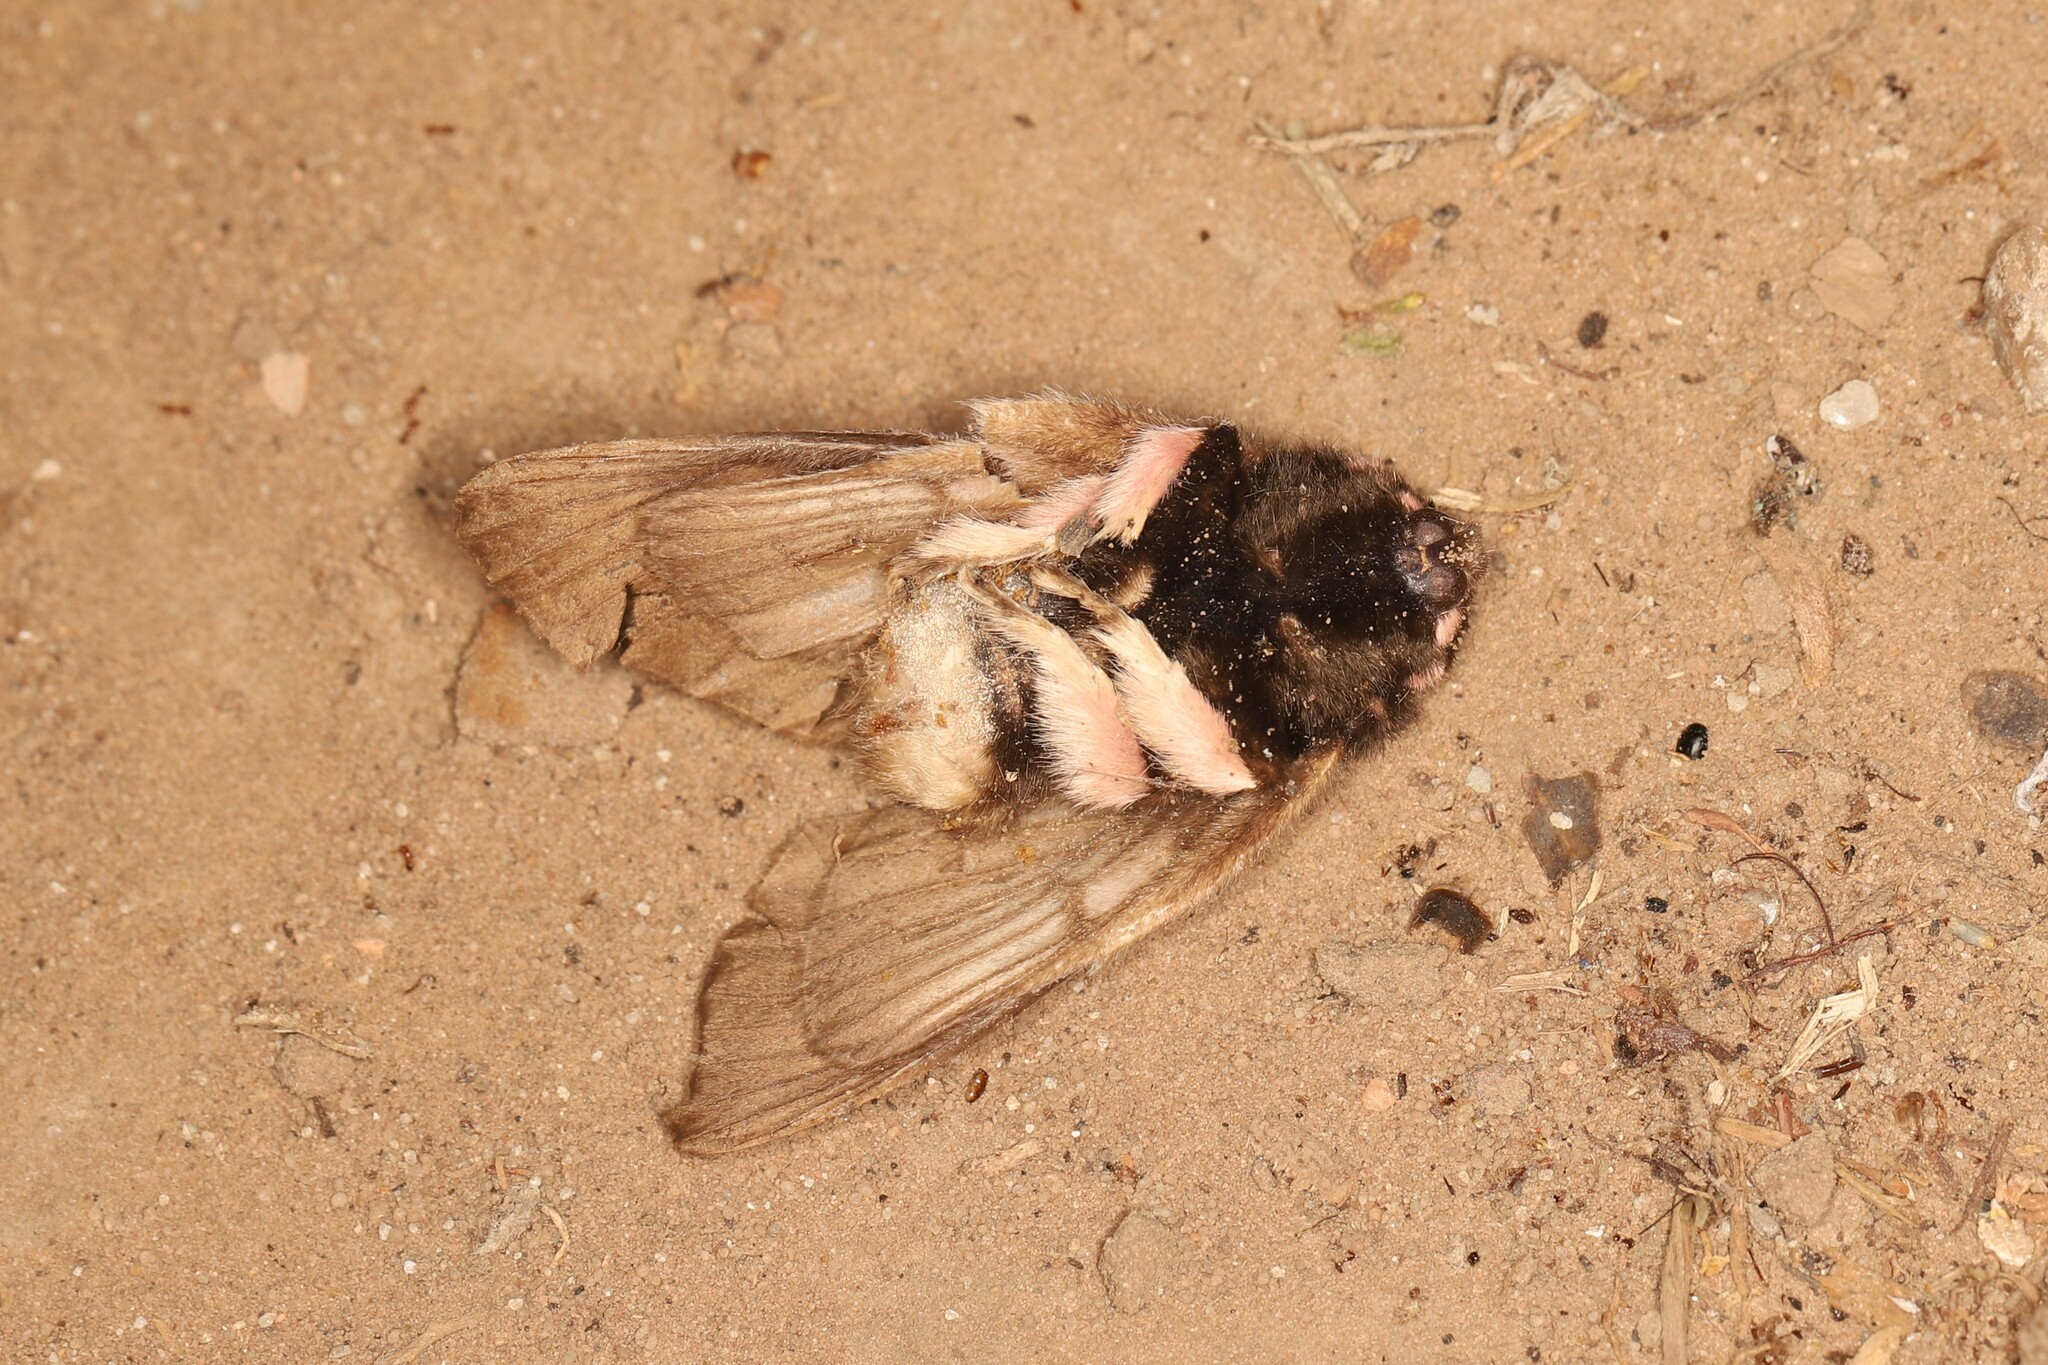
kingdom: Animalia
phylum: Arthropoda
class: Insecta
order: Lepidoptera
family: Megalopygidae
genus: Megalopyge
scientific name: Megalopyge lanata
